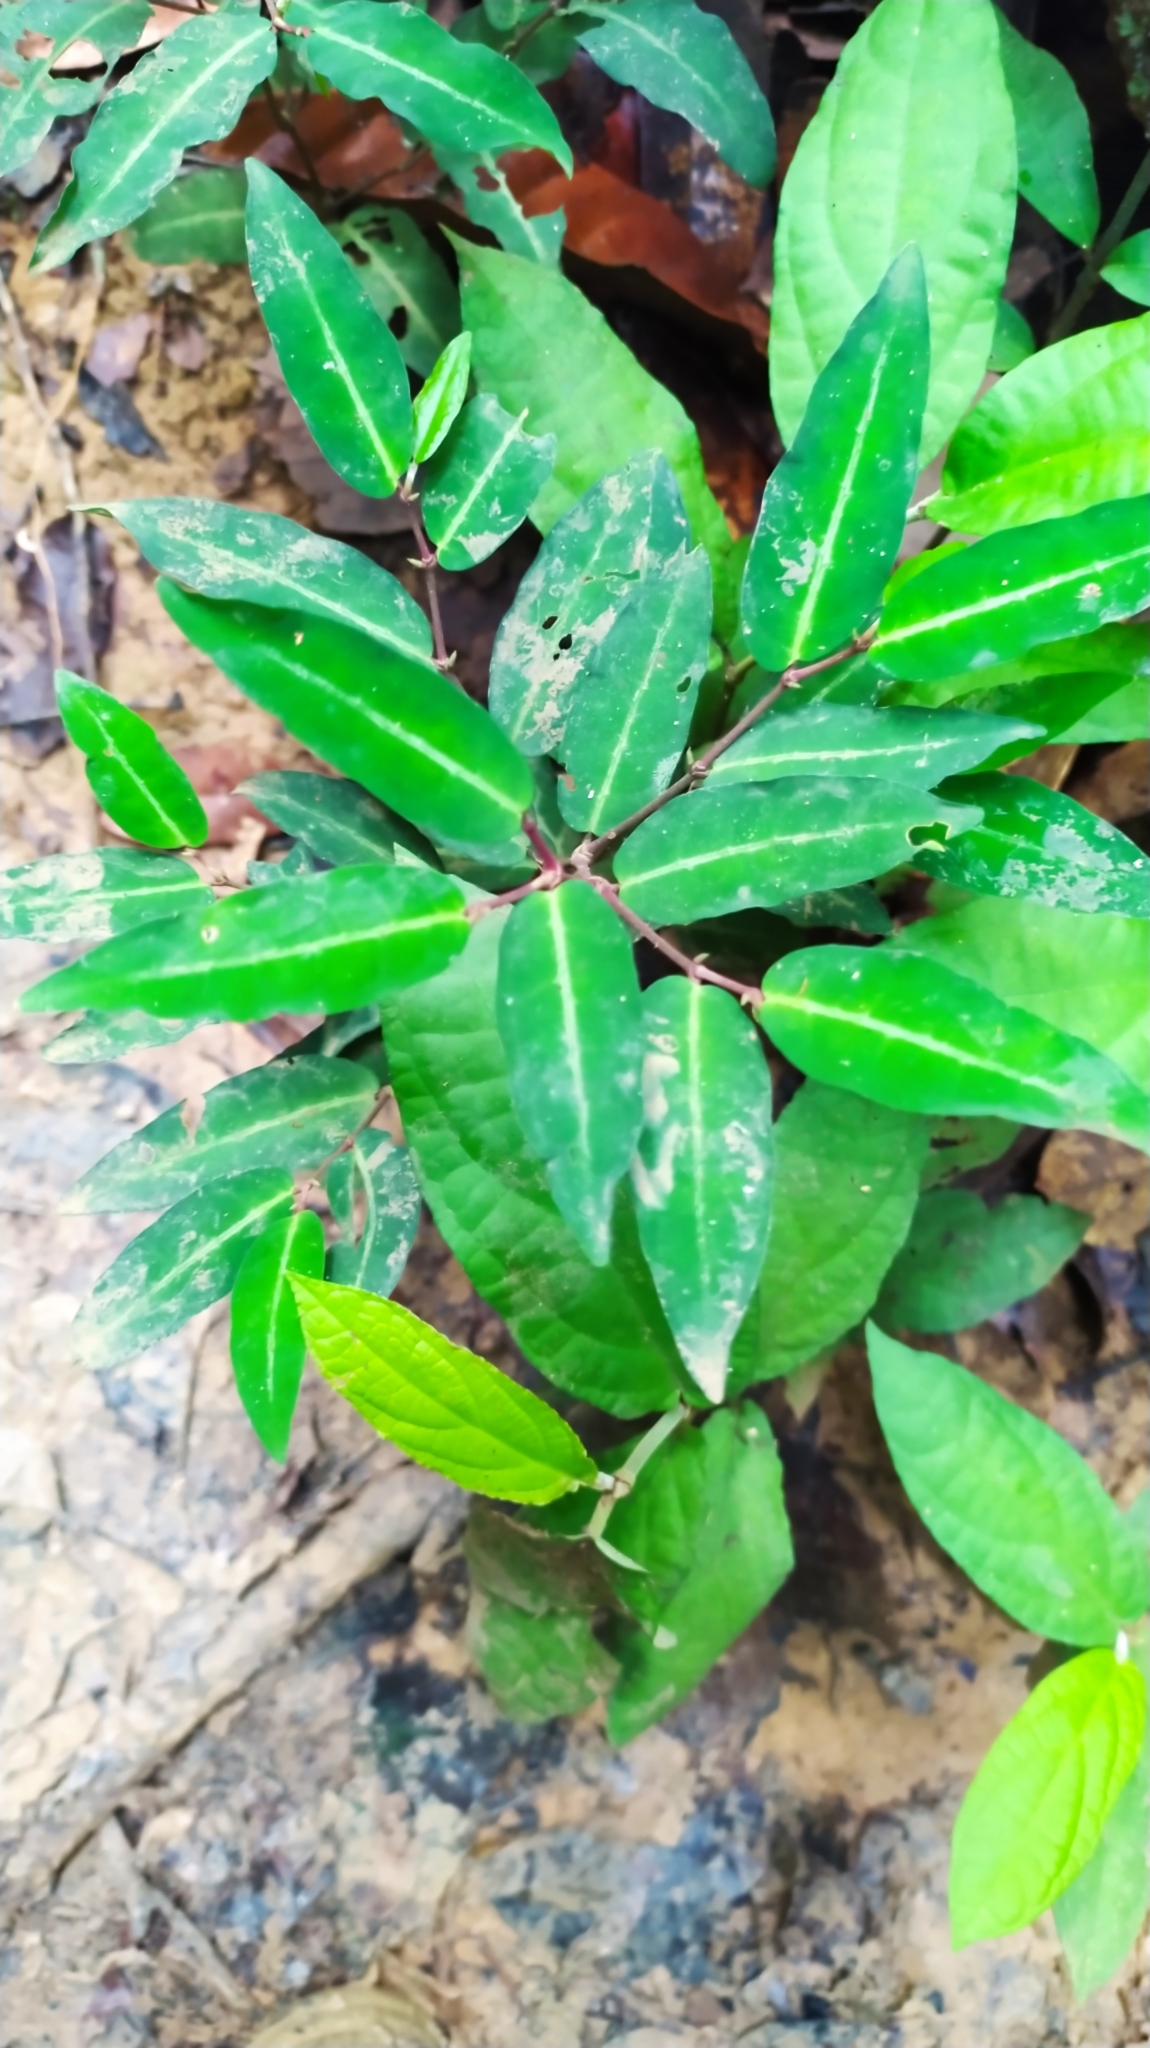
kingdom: Plantae
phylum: Tracheophyta
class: Magnoliopsida
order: Piperales
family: Piperaceae
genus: Piper
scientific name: Piper consanguineum
